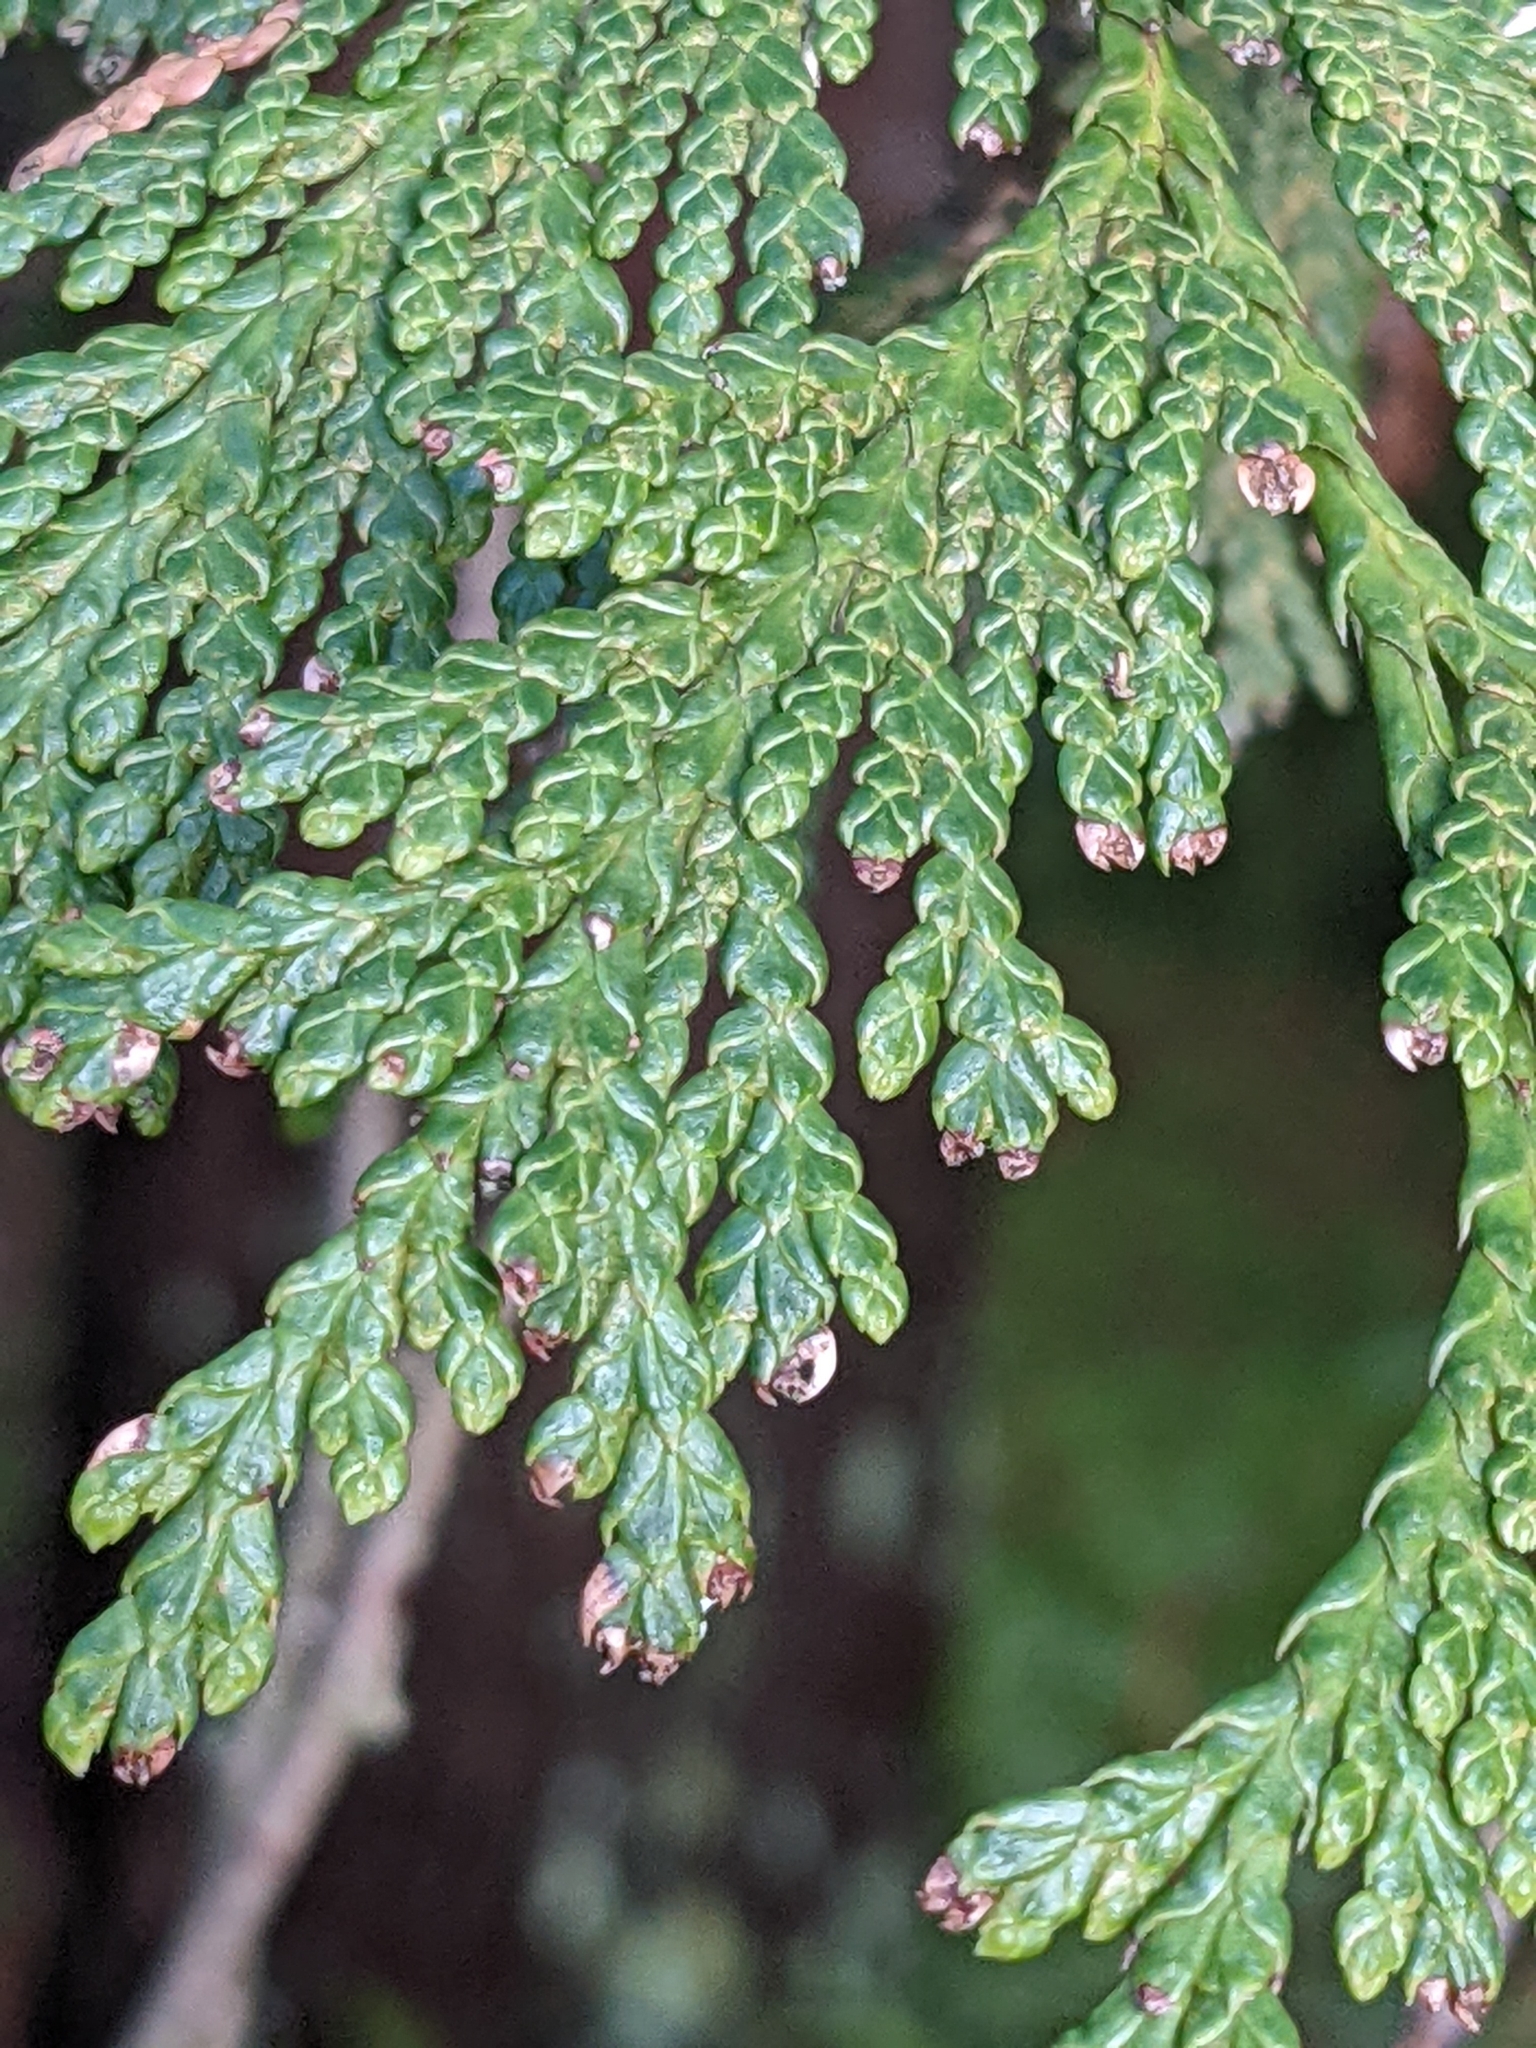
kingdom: Plantae
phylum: Tracheophyta
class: Pinopsida
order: Pinales
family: Cupressaceae
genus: Thuja
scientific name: Thuja plicata
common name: Western red-cedar
